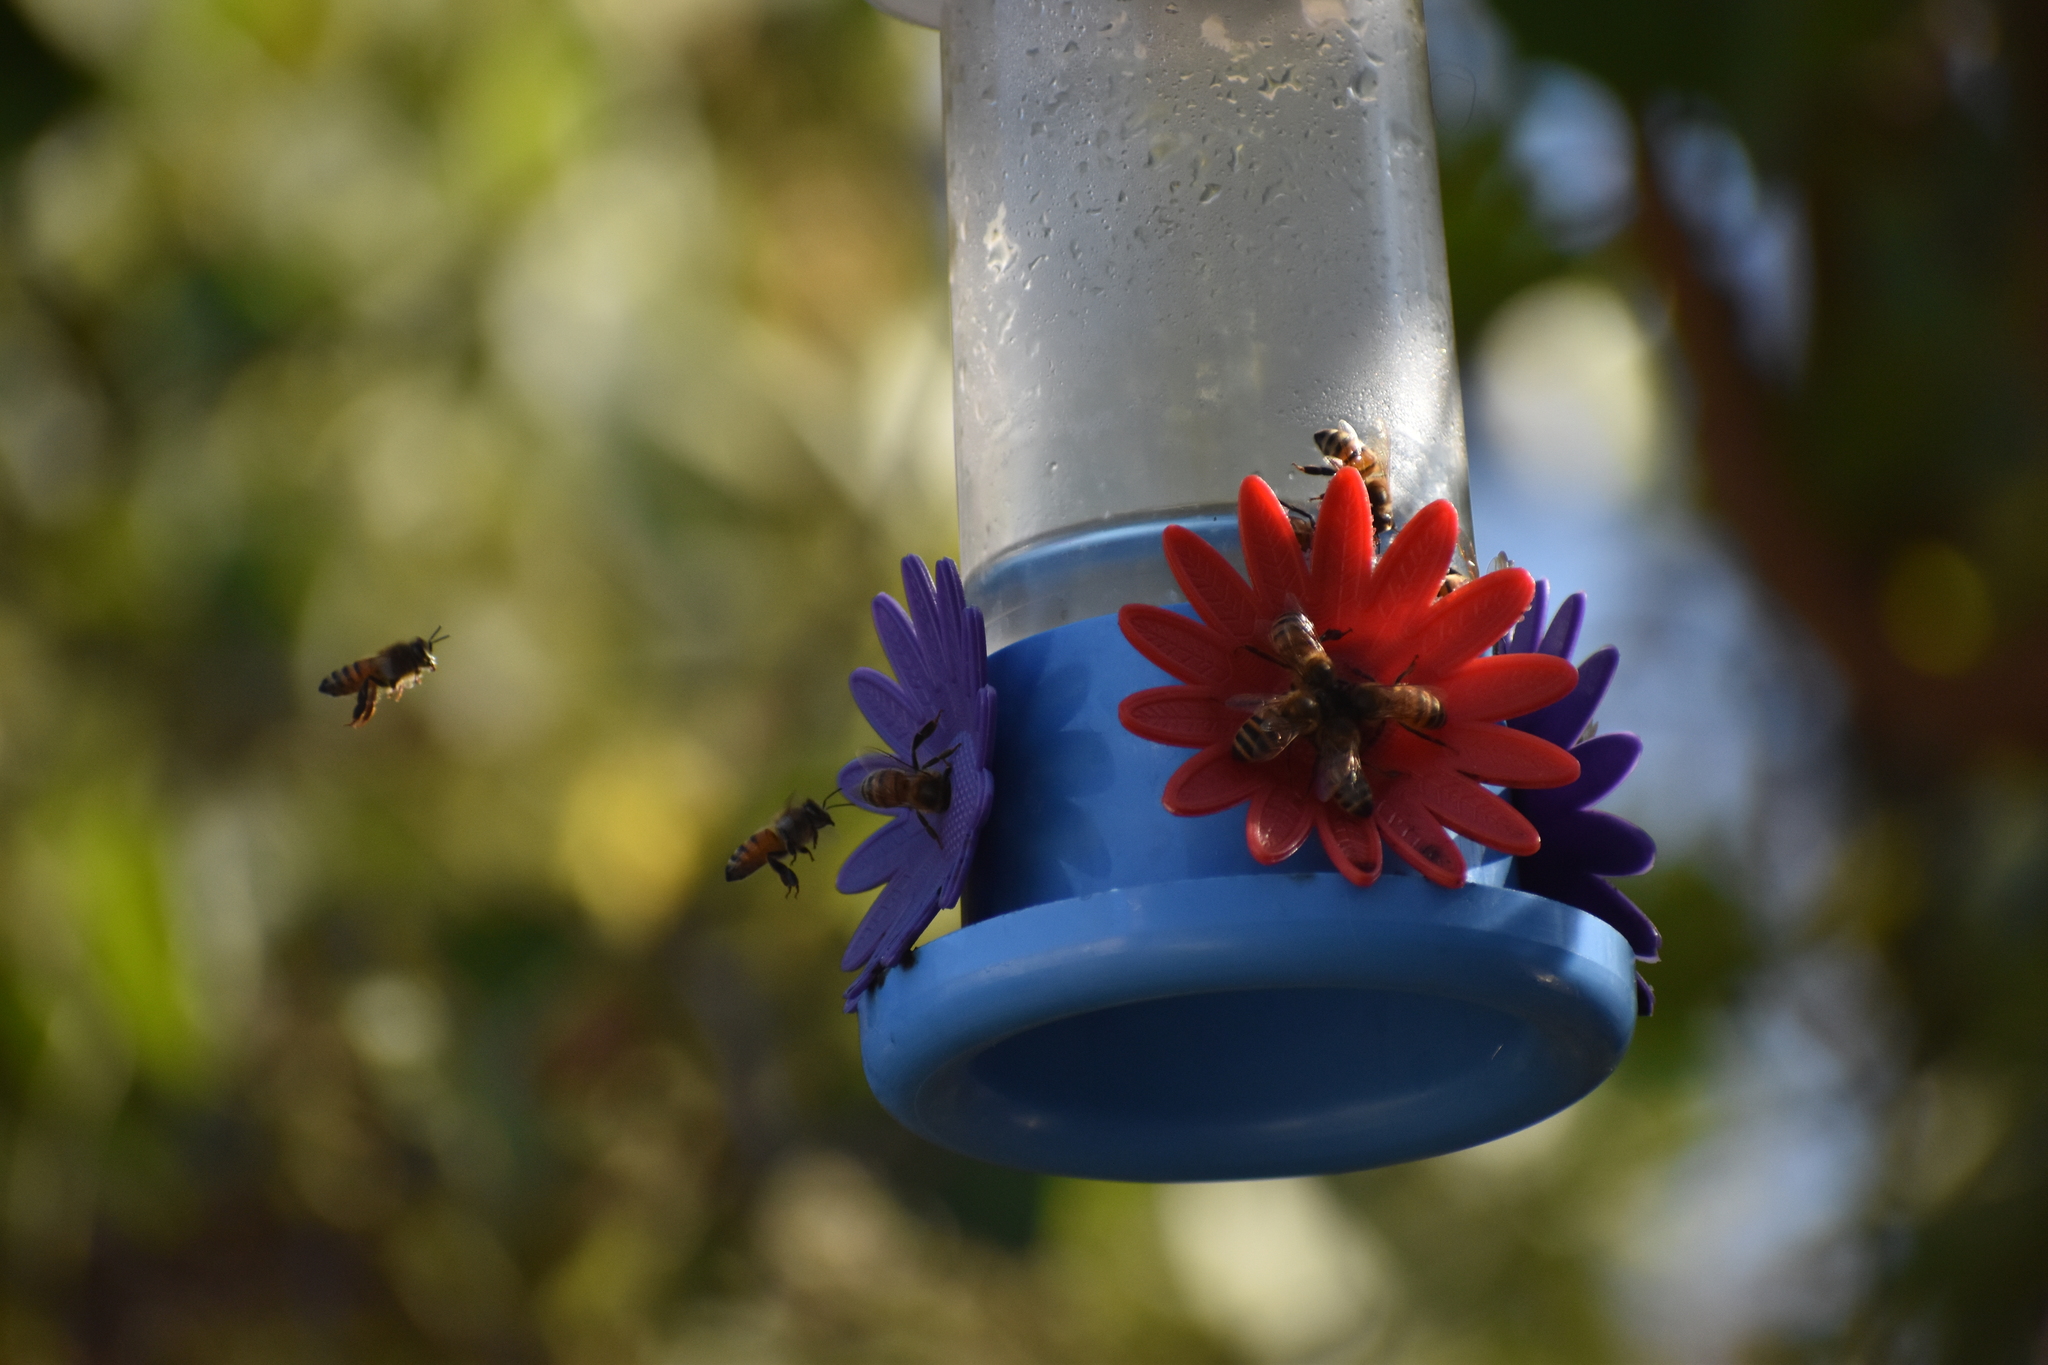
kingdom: Animalia
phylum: Arthropoda
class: Insecta
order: Hymenoptera
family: Apidae
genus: Apis
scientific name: Apis mellifera
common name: Honey bee
